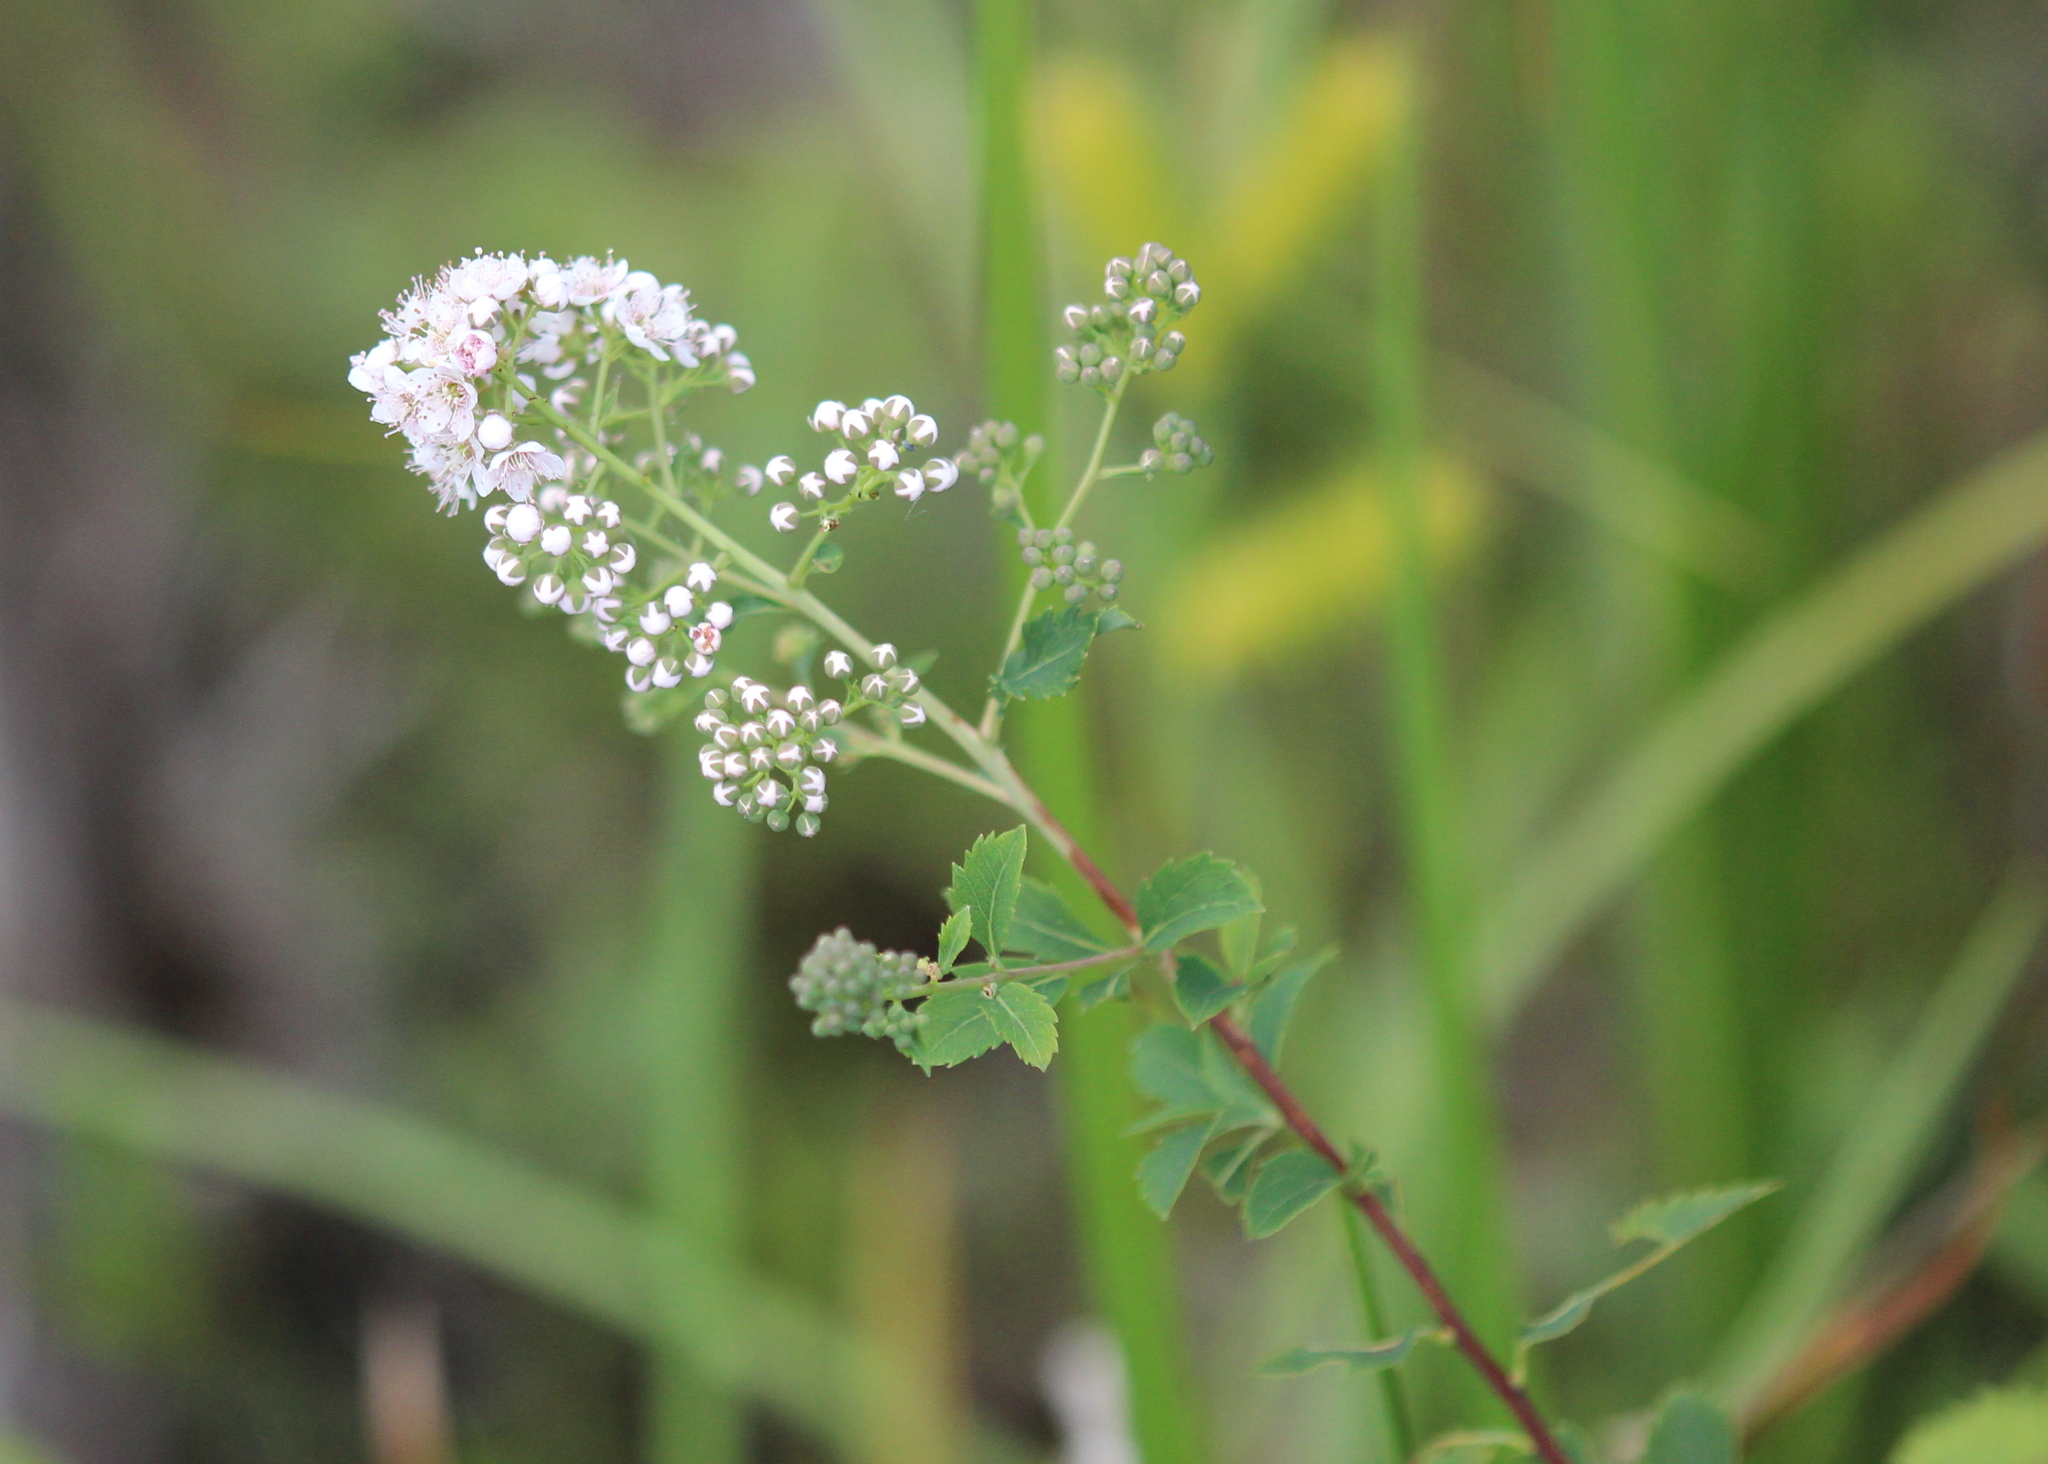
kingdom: Plantae
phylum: Tracheophyta
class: Magnoliopsida
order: Rosales
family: Rosaceae
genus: Spiraea
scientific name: Spiraea alba
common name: Pale bridewort
